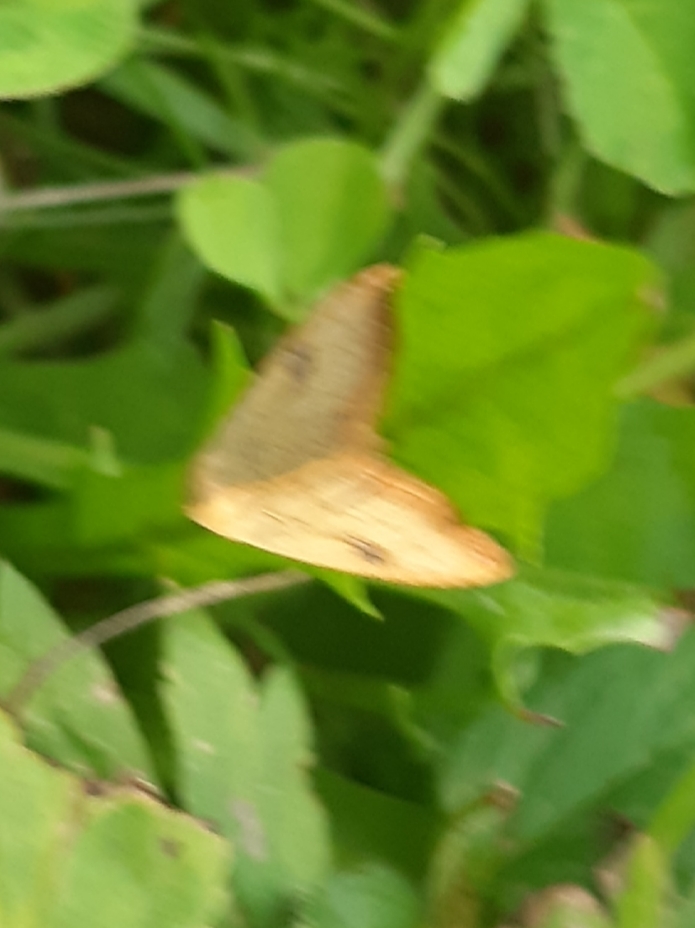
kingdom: Animalia
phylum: Arthropoda
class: Insecta
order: Lepidoptera
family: Erebidae
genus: Rivula
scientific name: Rivula sericealis
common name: Straw dot
